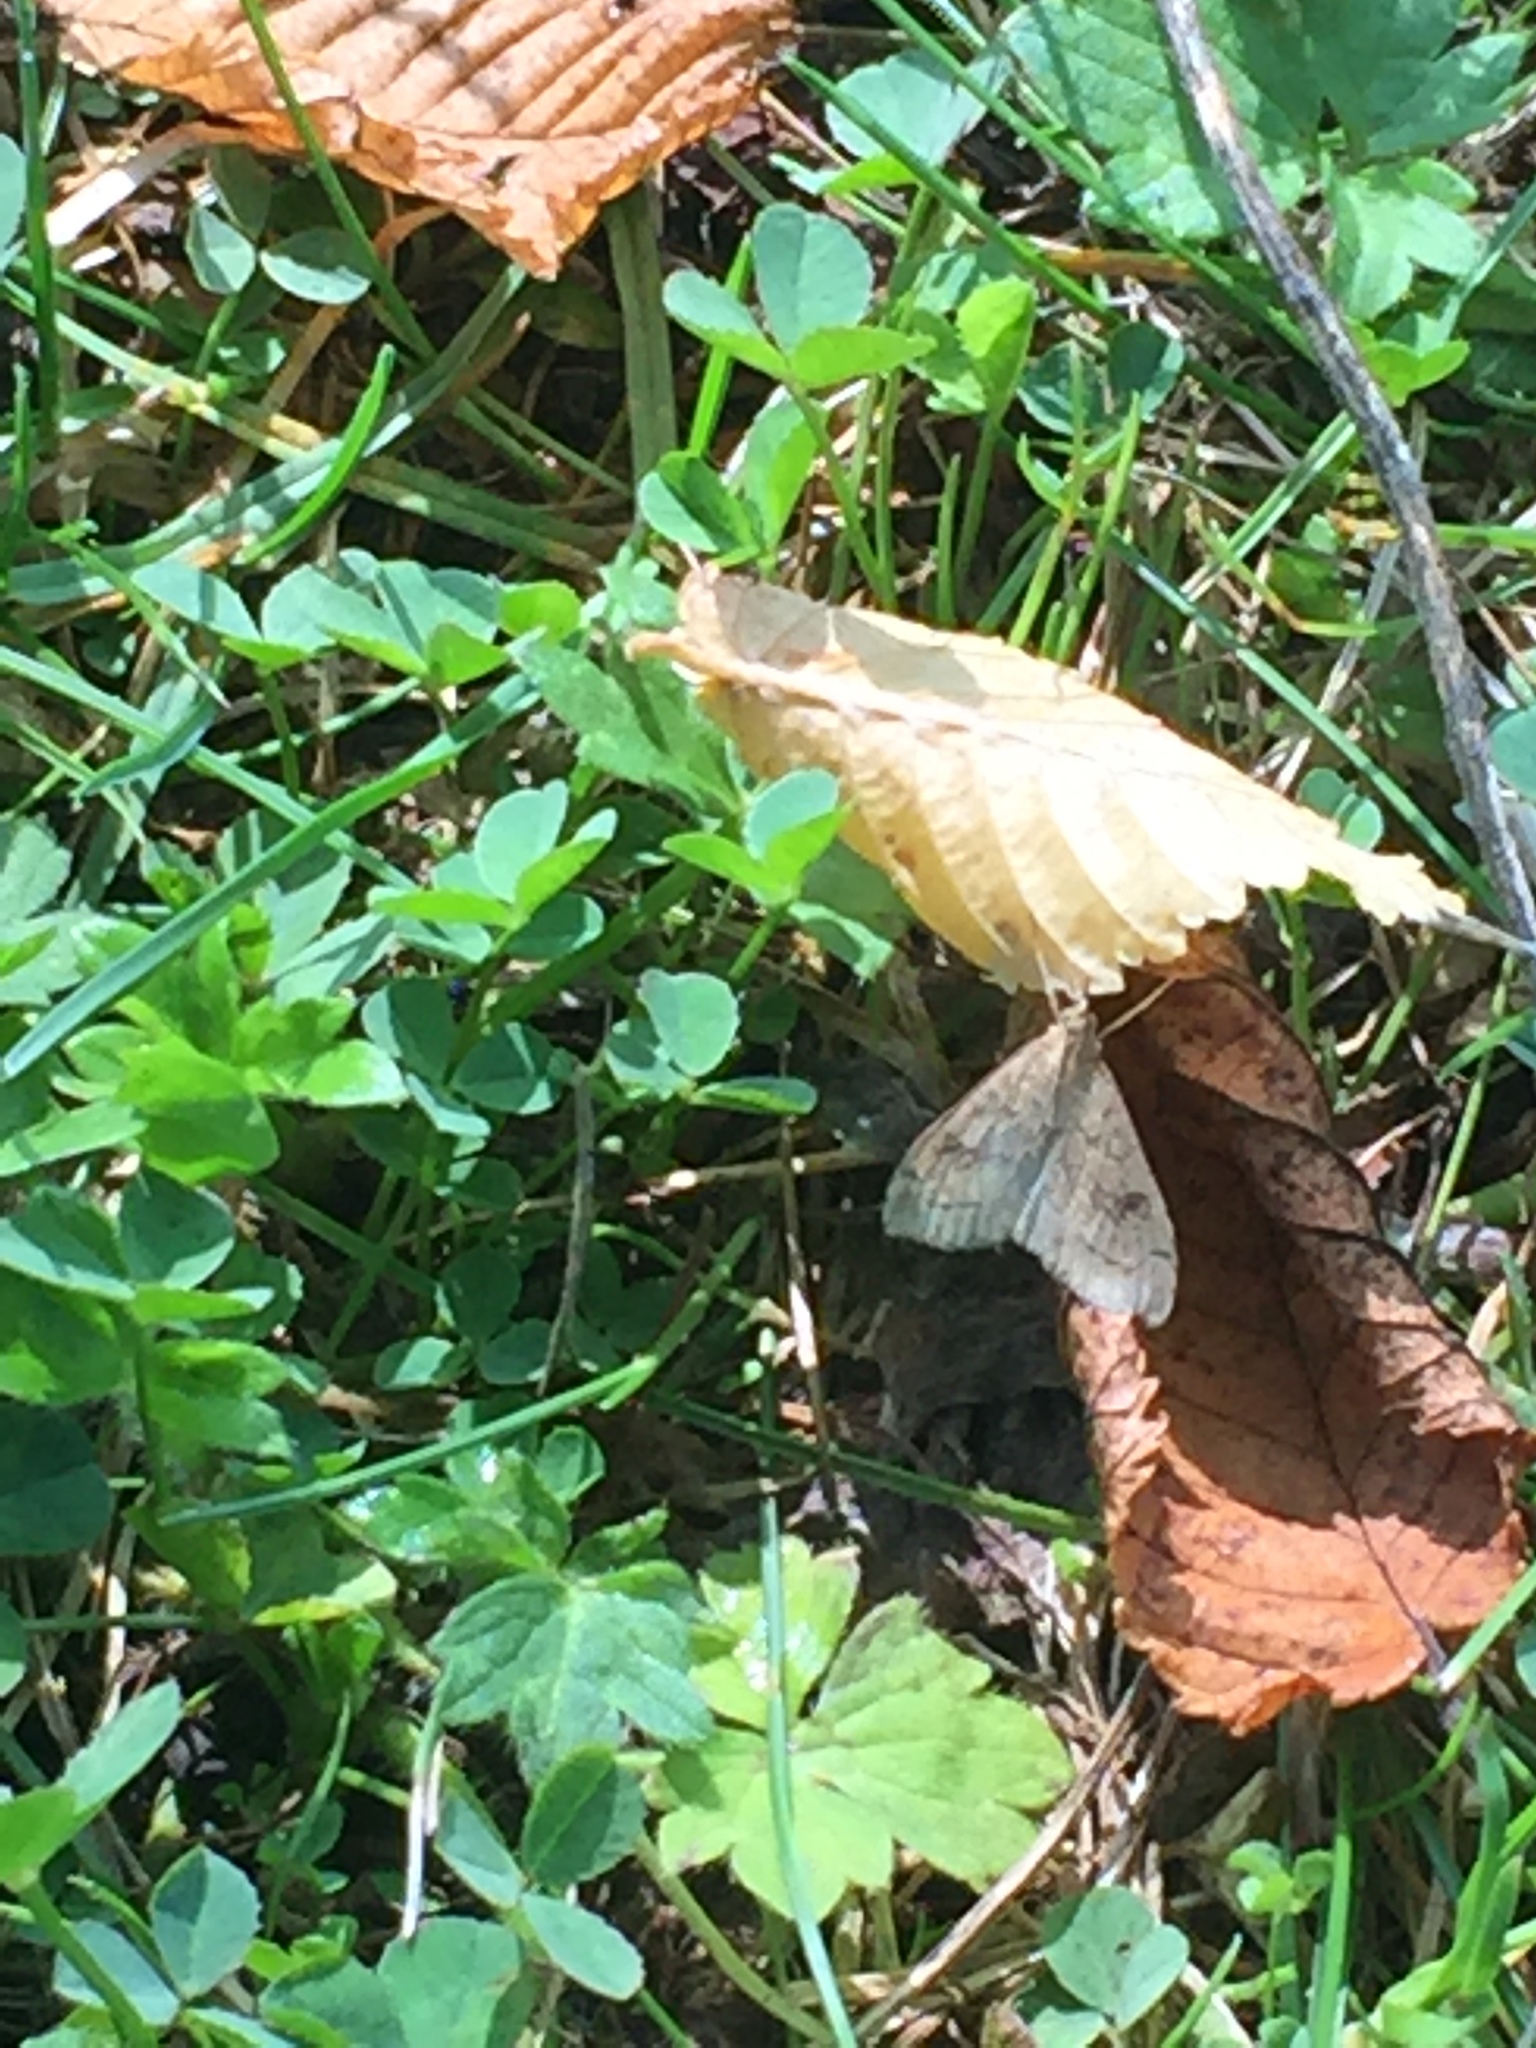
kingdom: Animalia
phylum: Arthropoda
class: Insecta
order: Lepidoptera
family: Crambidae
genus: Udea
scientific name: Udea profundalis
